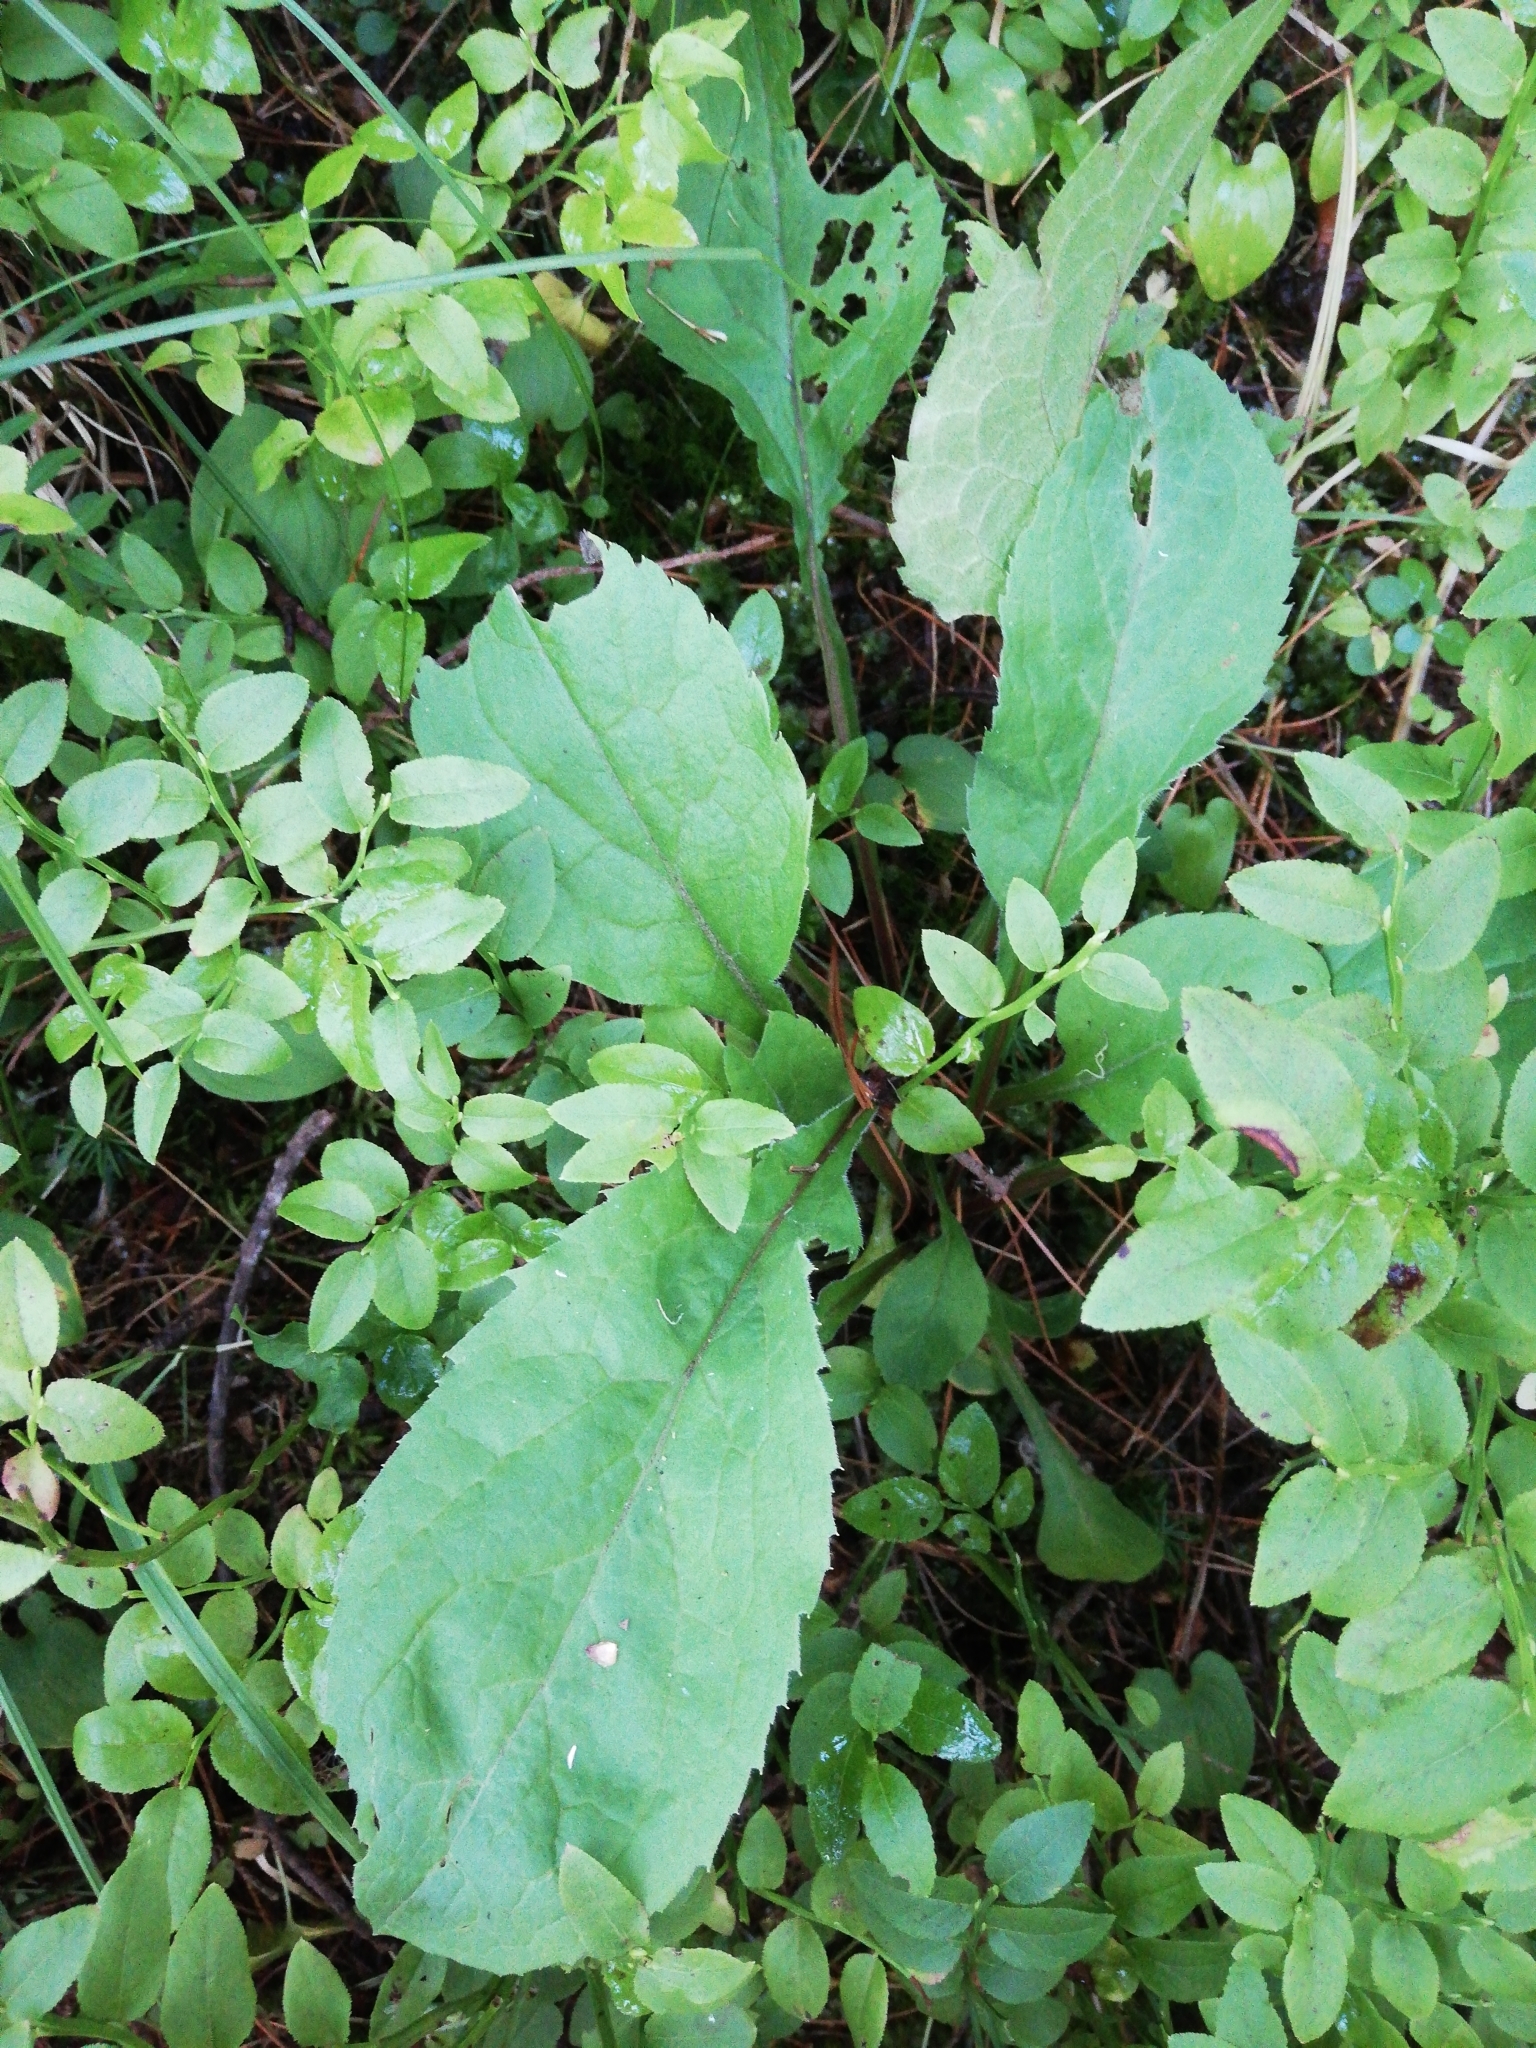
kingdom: Plantae
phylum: Tracheophyta
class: Magnoliopsida
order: Asterales
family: Asteraceae
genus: Solidago
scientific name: Solidago virgaurea
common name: Goldenrod
